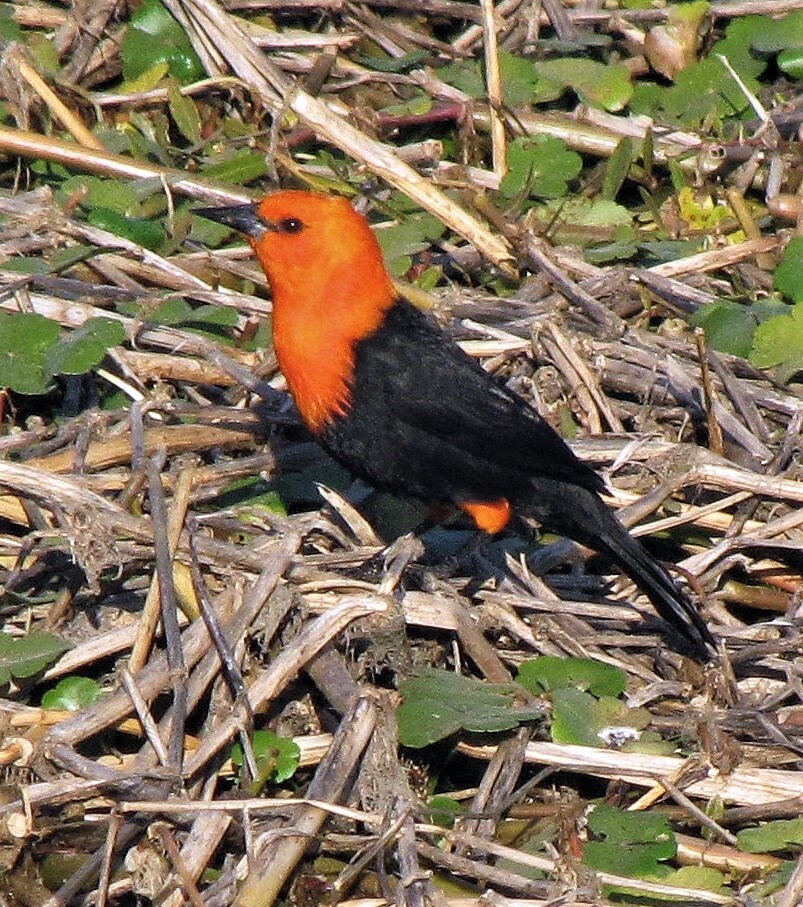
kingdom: Animalia
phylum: Chordata
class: Aves
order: Passeriformes
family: Icteridae
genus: Amblyramphus
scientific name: Amblyramphus holosericeus
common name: Scarlet-headed blackbird
